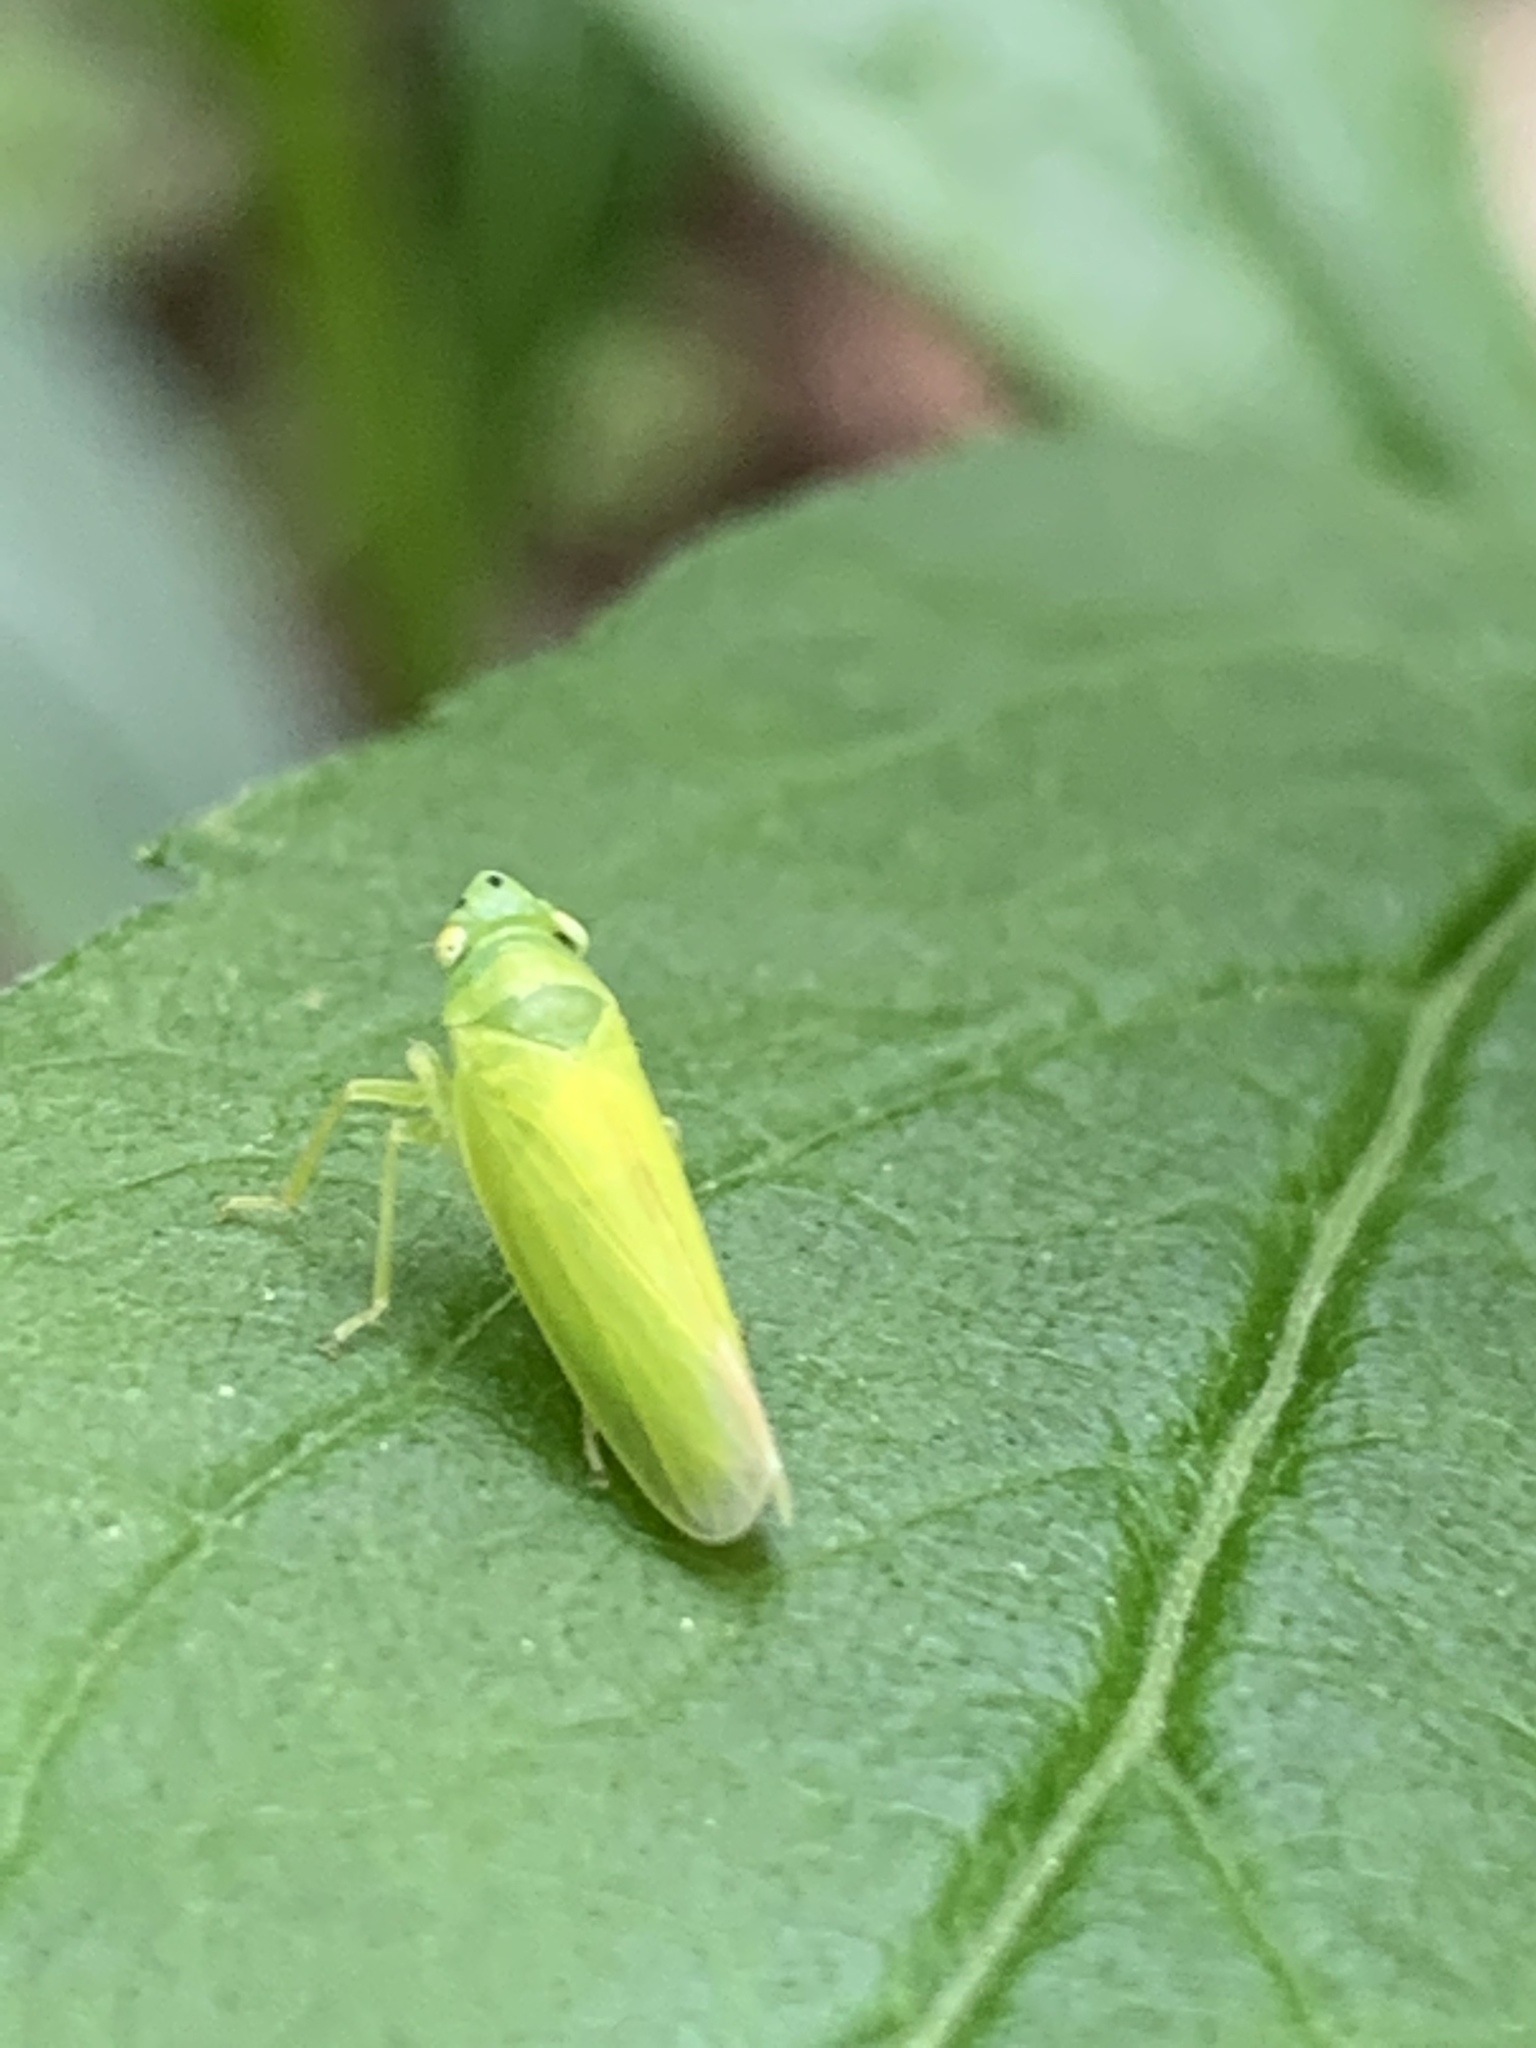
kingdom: Animalia
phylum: Arthropoda
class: Insecta
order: Hemiptera
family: Cicadellidae
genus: Pagaronia
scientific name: Pagaronia minor
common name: Leafhopper
